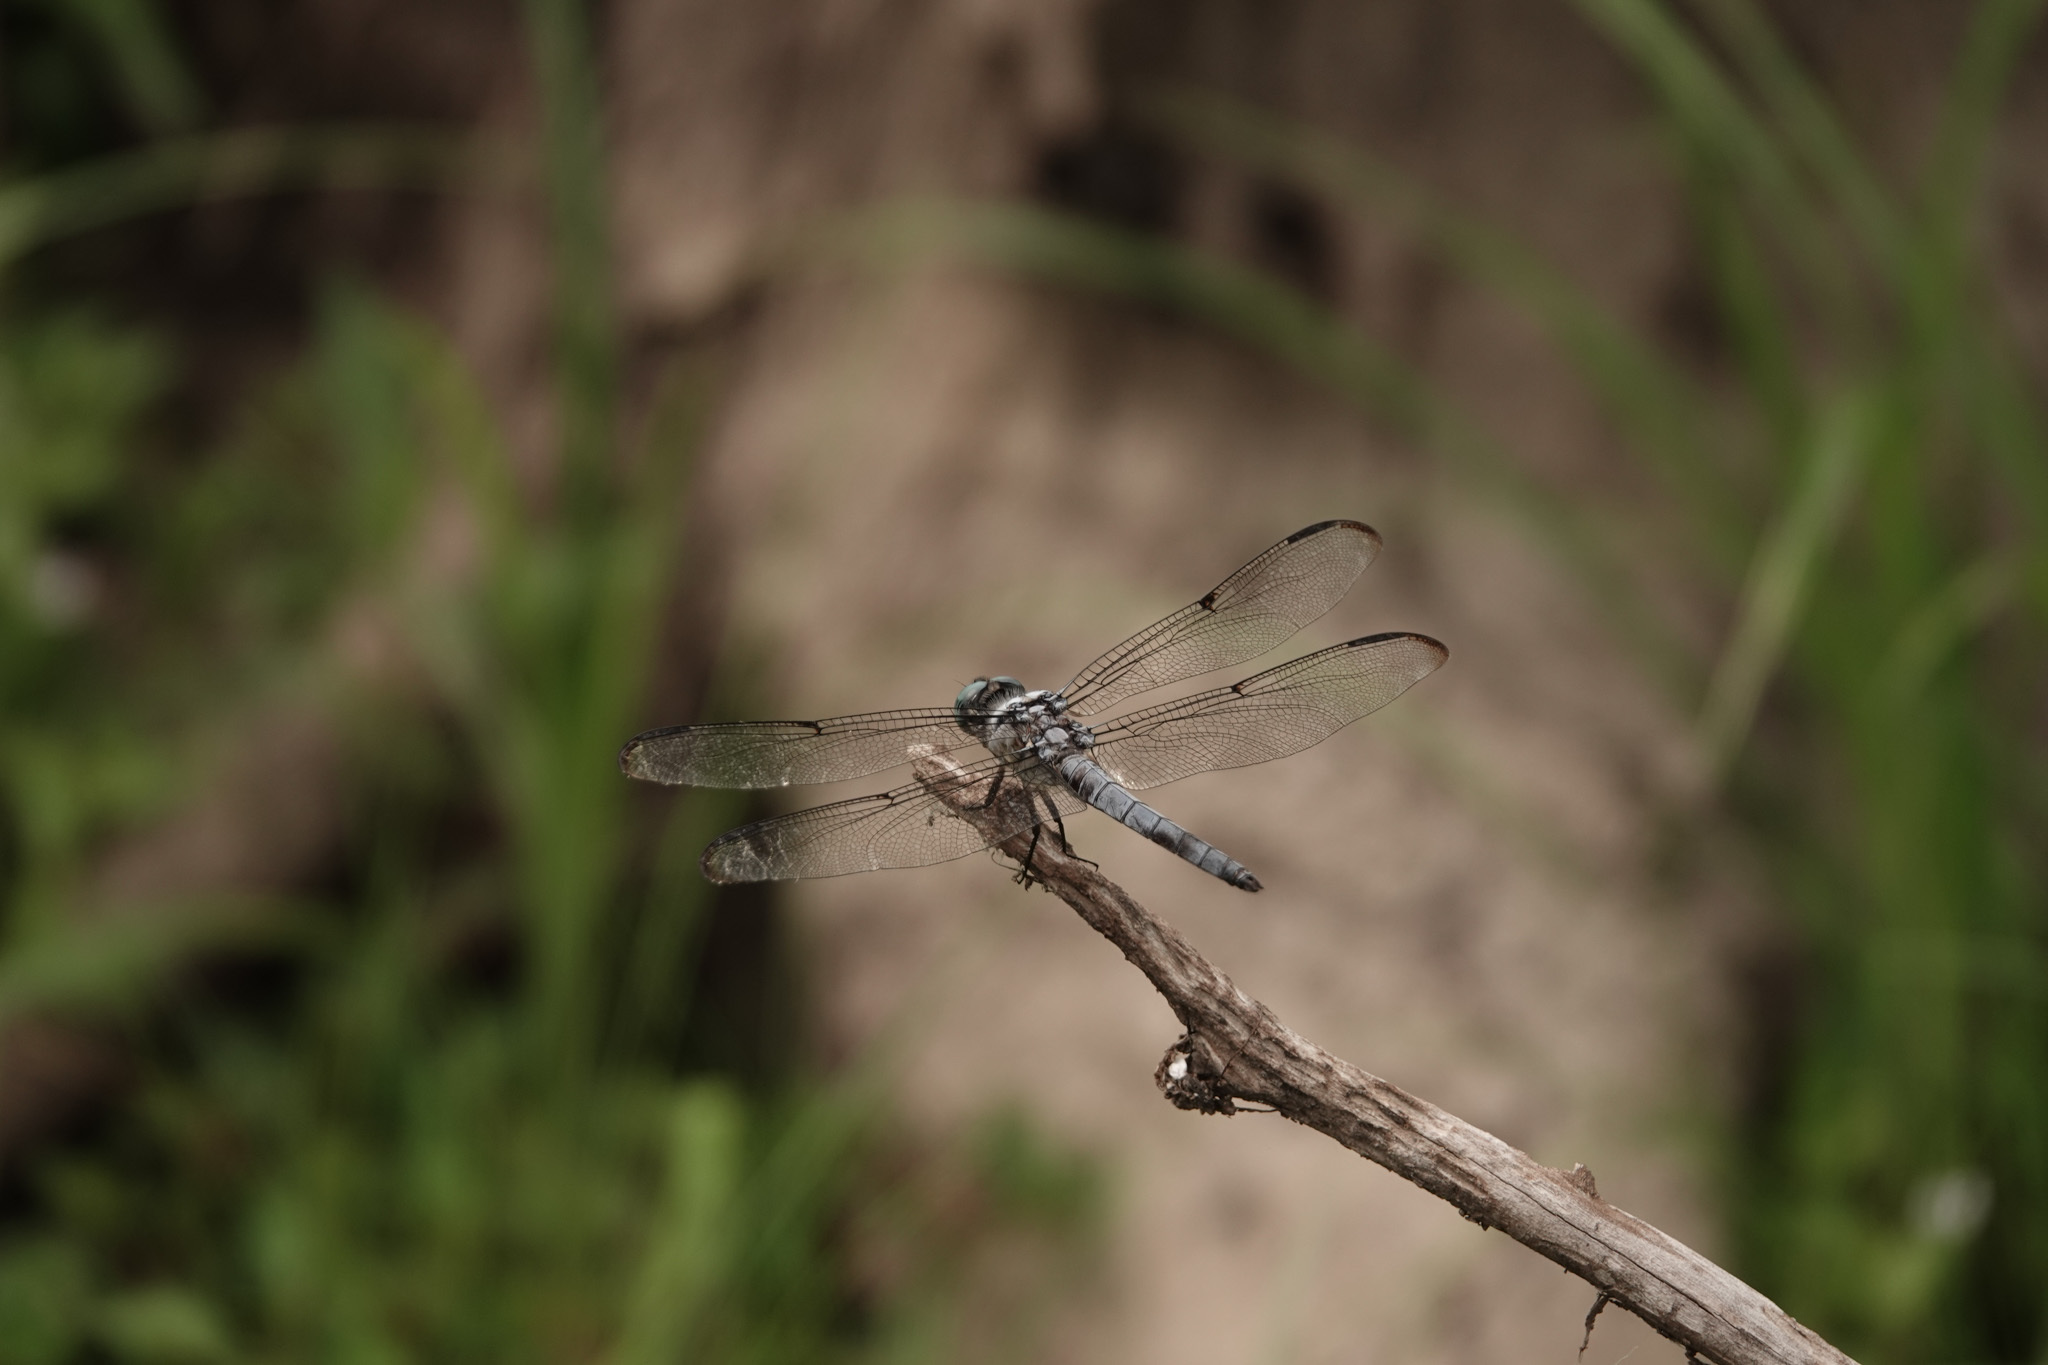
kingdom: Animalia
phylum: Arthropoda
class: Insecta
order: Odonata
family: Libellulidae
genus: Libellula
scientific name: Libellula vibrans
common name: Great blue skimmer
